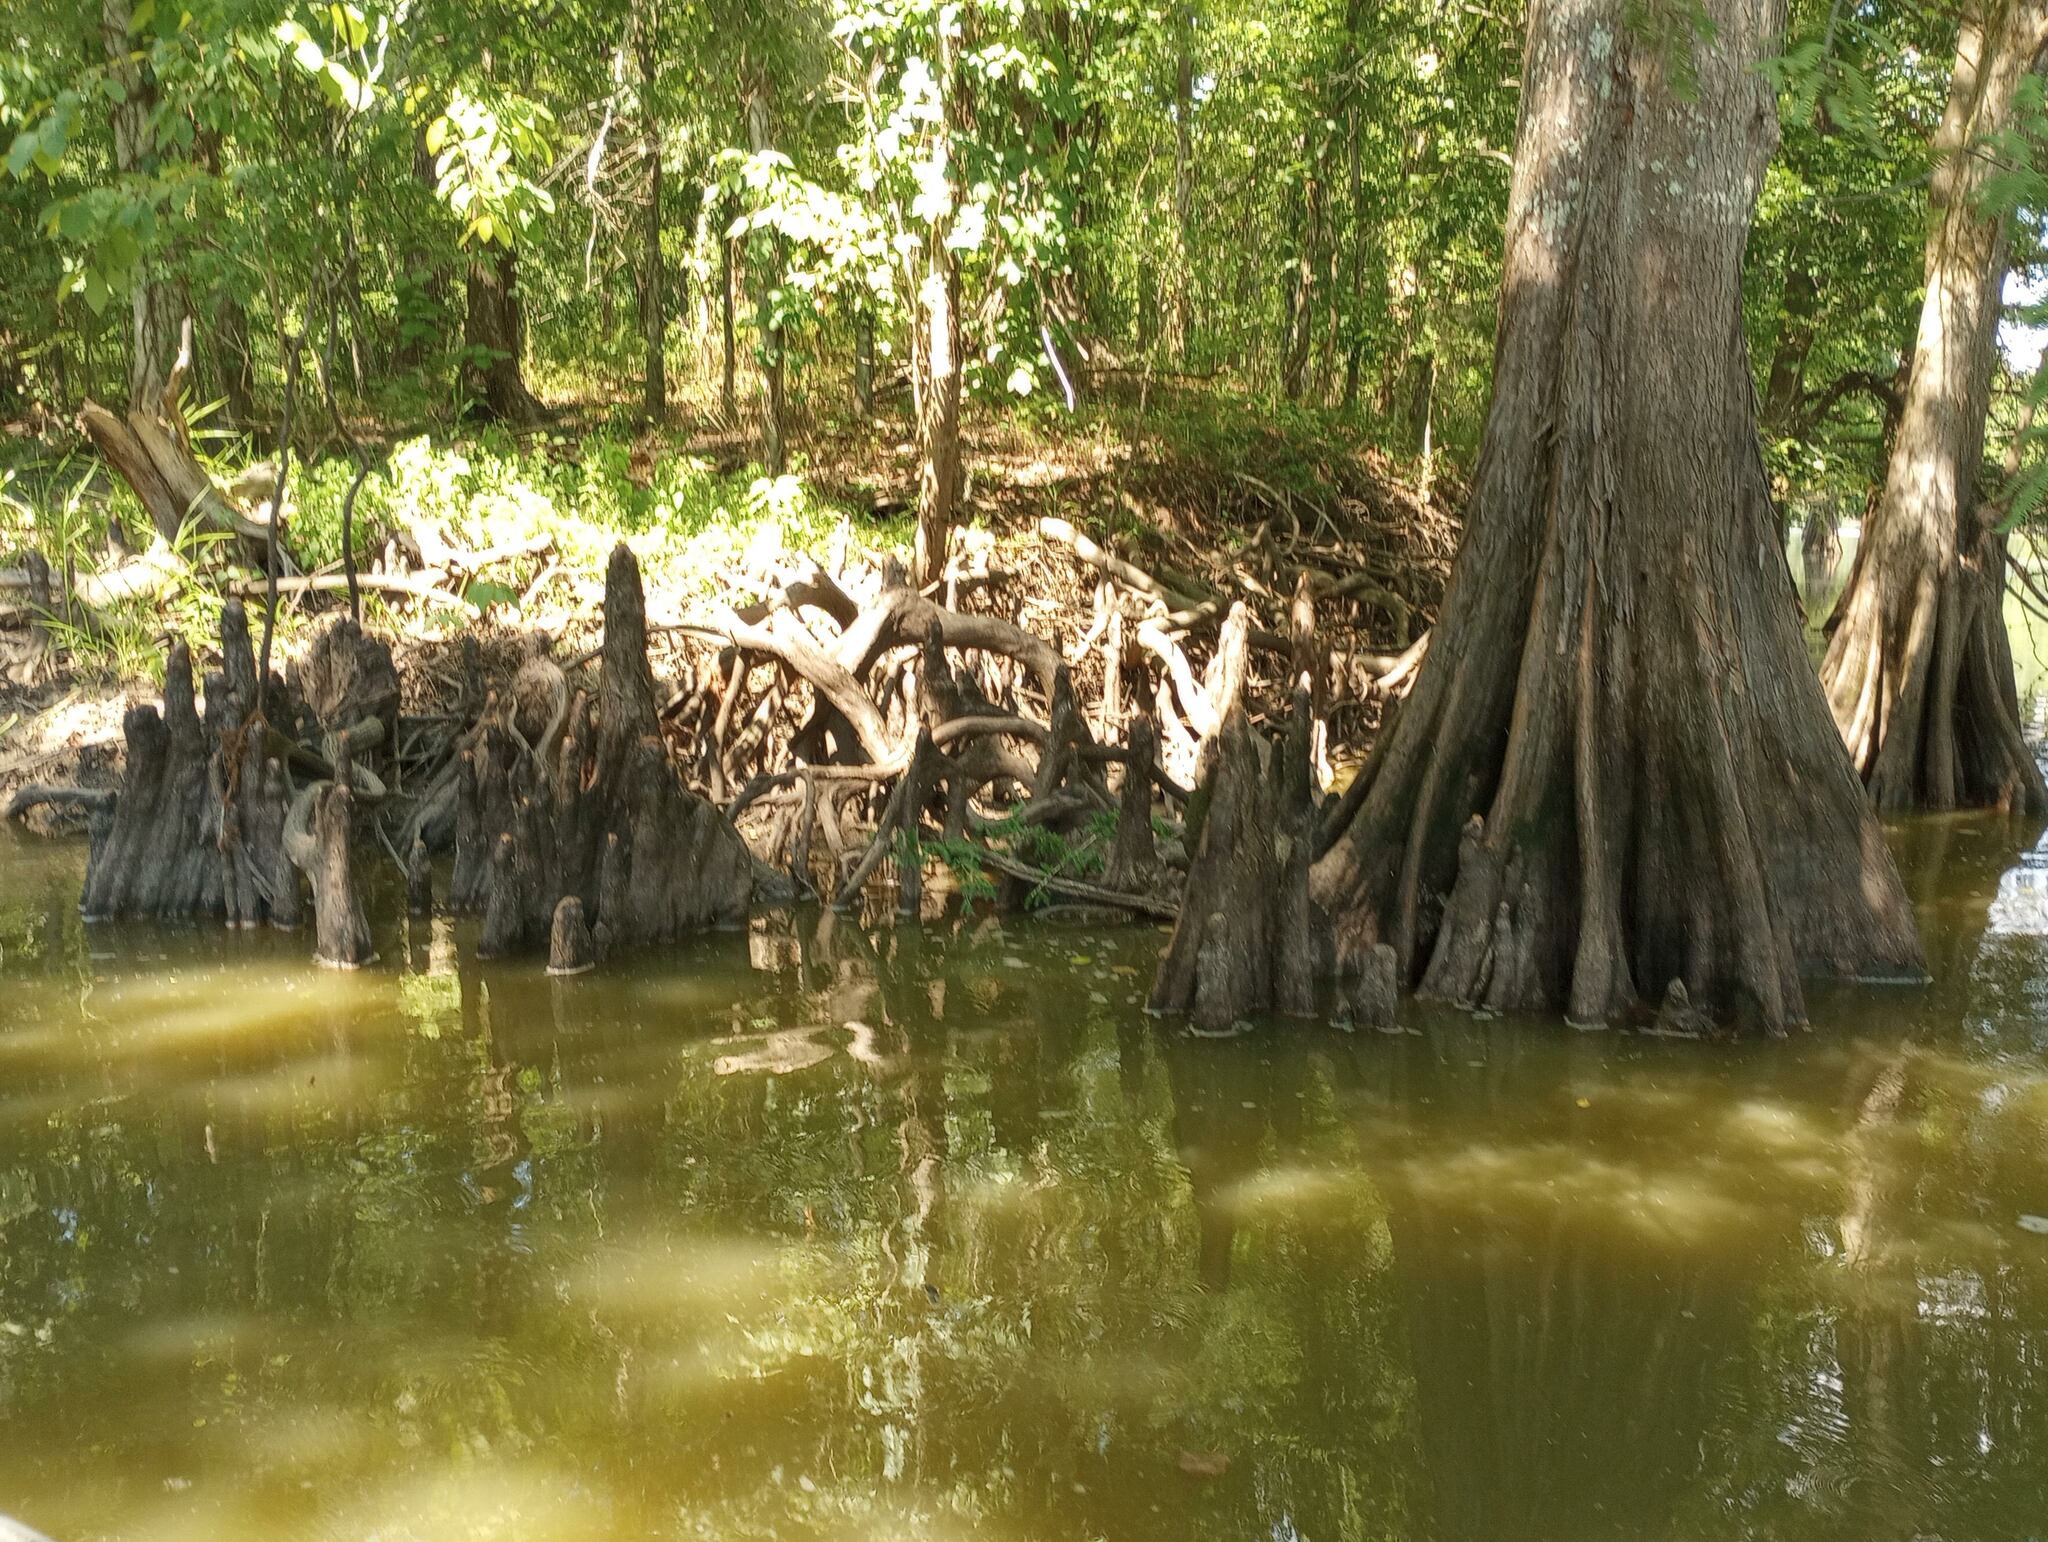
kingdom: Plantae
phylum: Tracheophyta
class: Pinopsida
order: Pinales
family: Cupressaceae
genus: Taxodium
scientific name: Taxodium distichum
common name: Bald cypress
